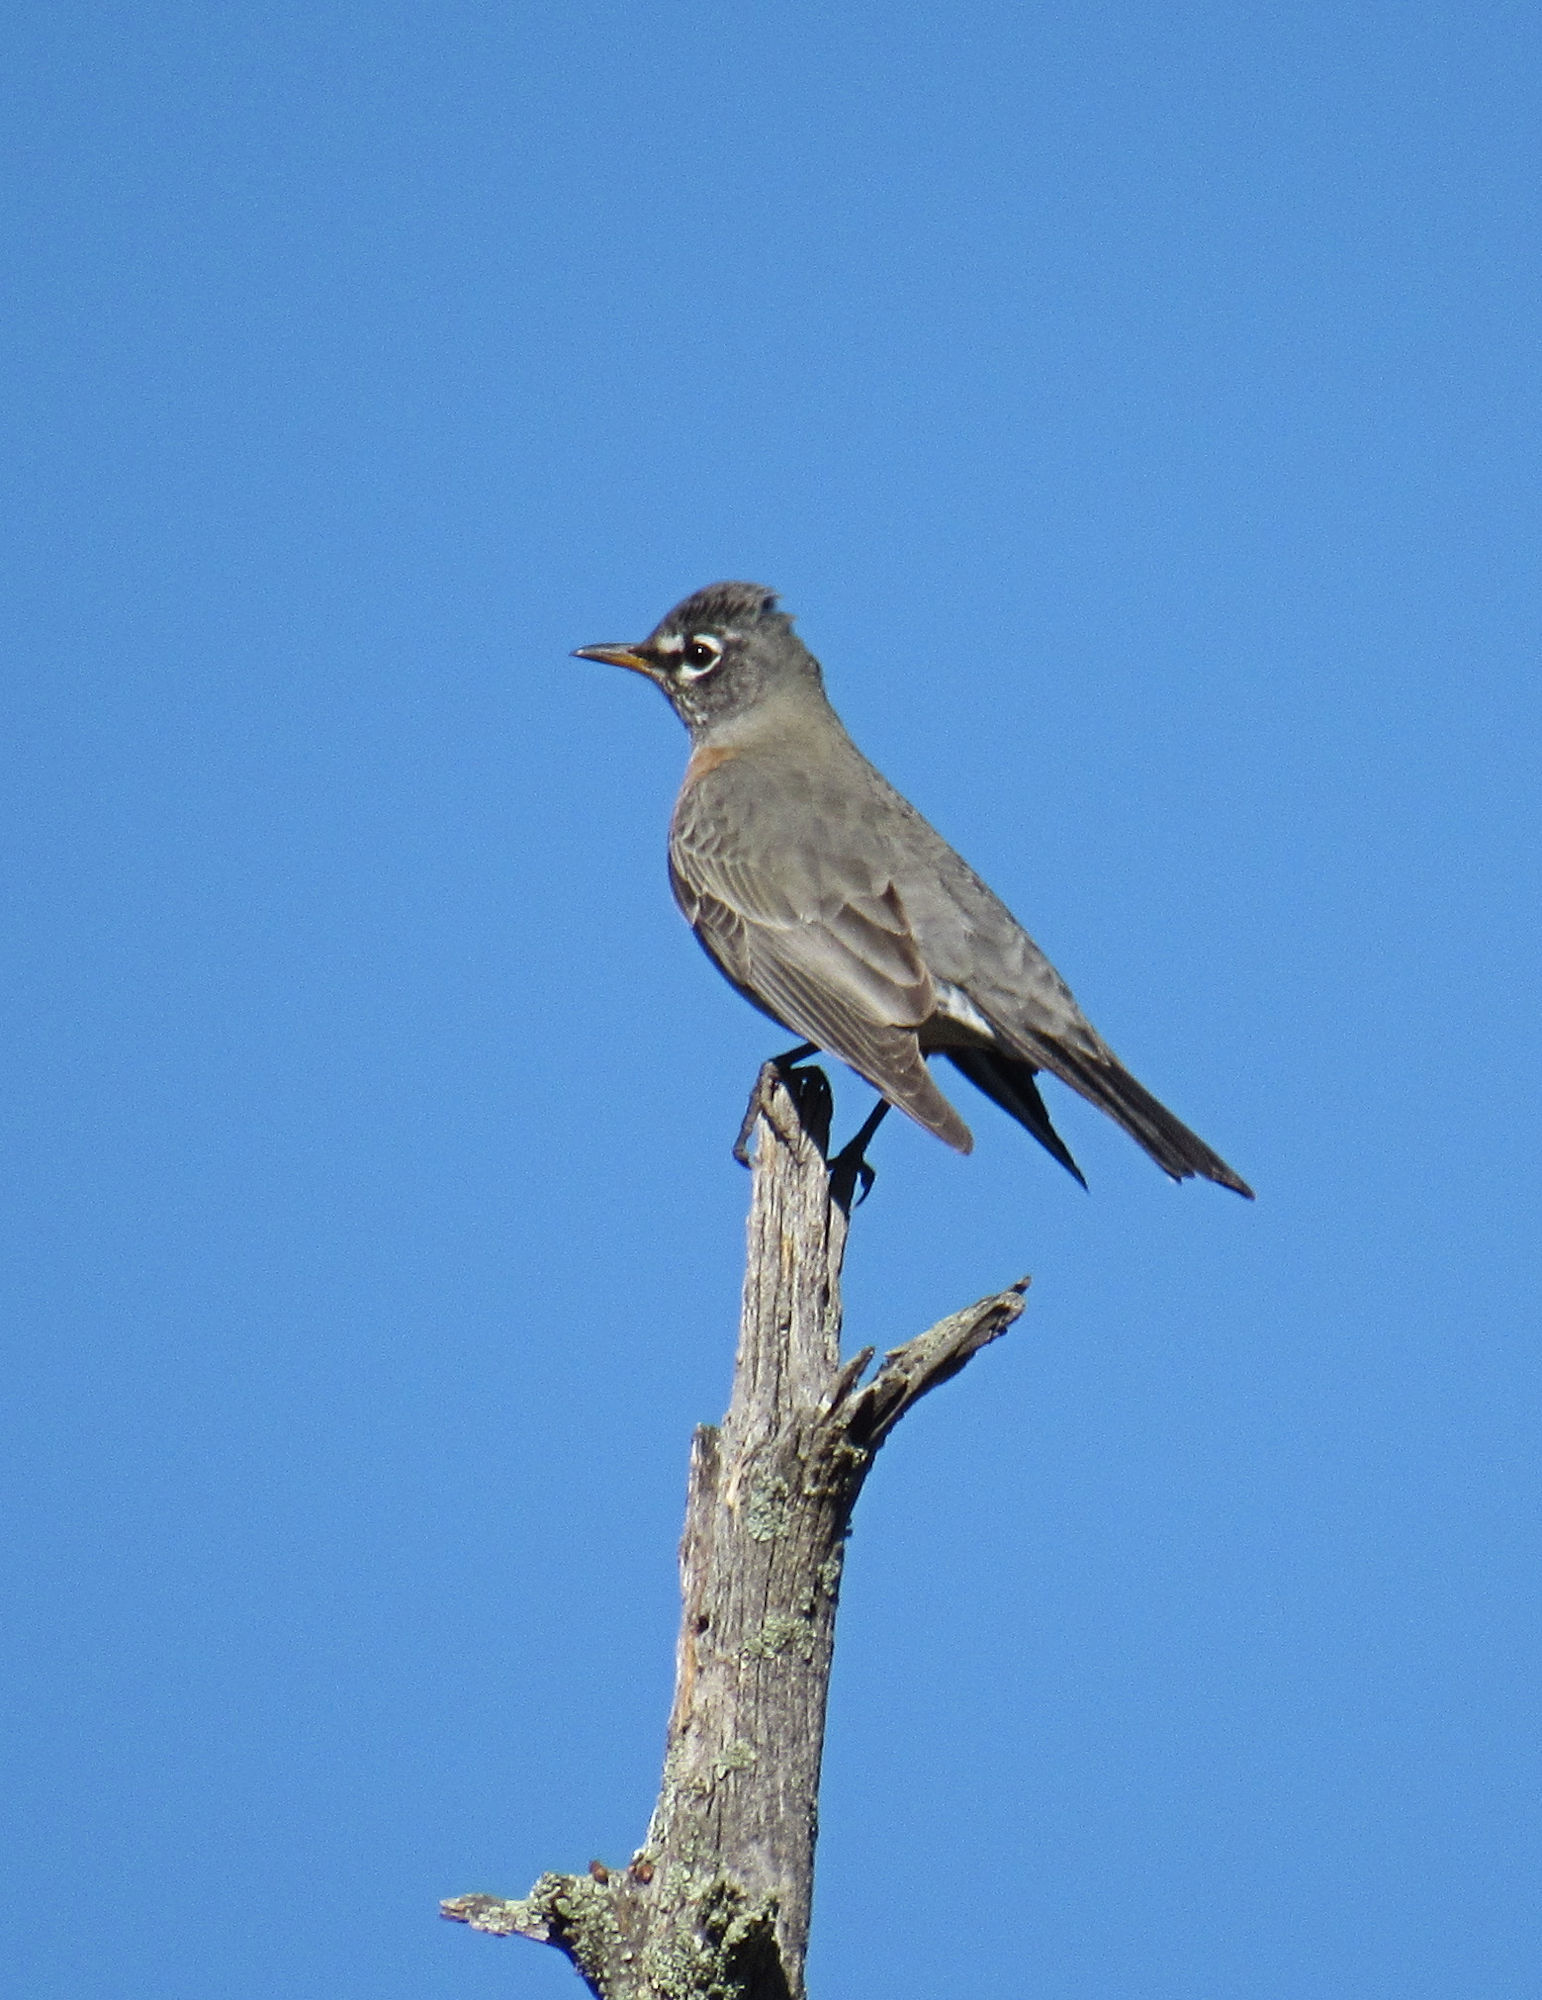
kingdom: Animalia
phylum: Chordata
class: Aves
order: Passeriformes
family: Turdidae
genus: Turdus
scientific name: Turdus migratorius
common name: American robin
